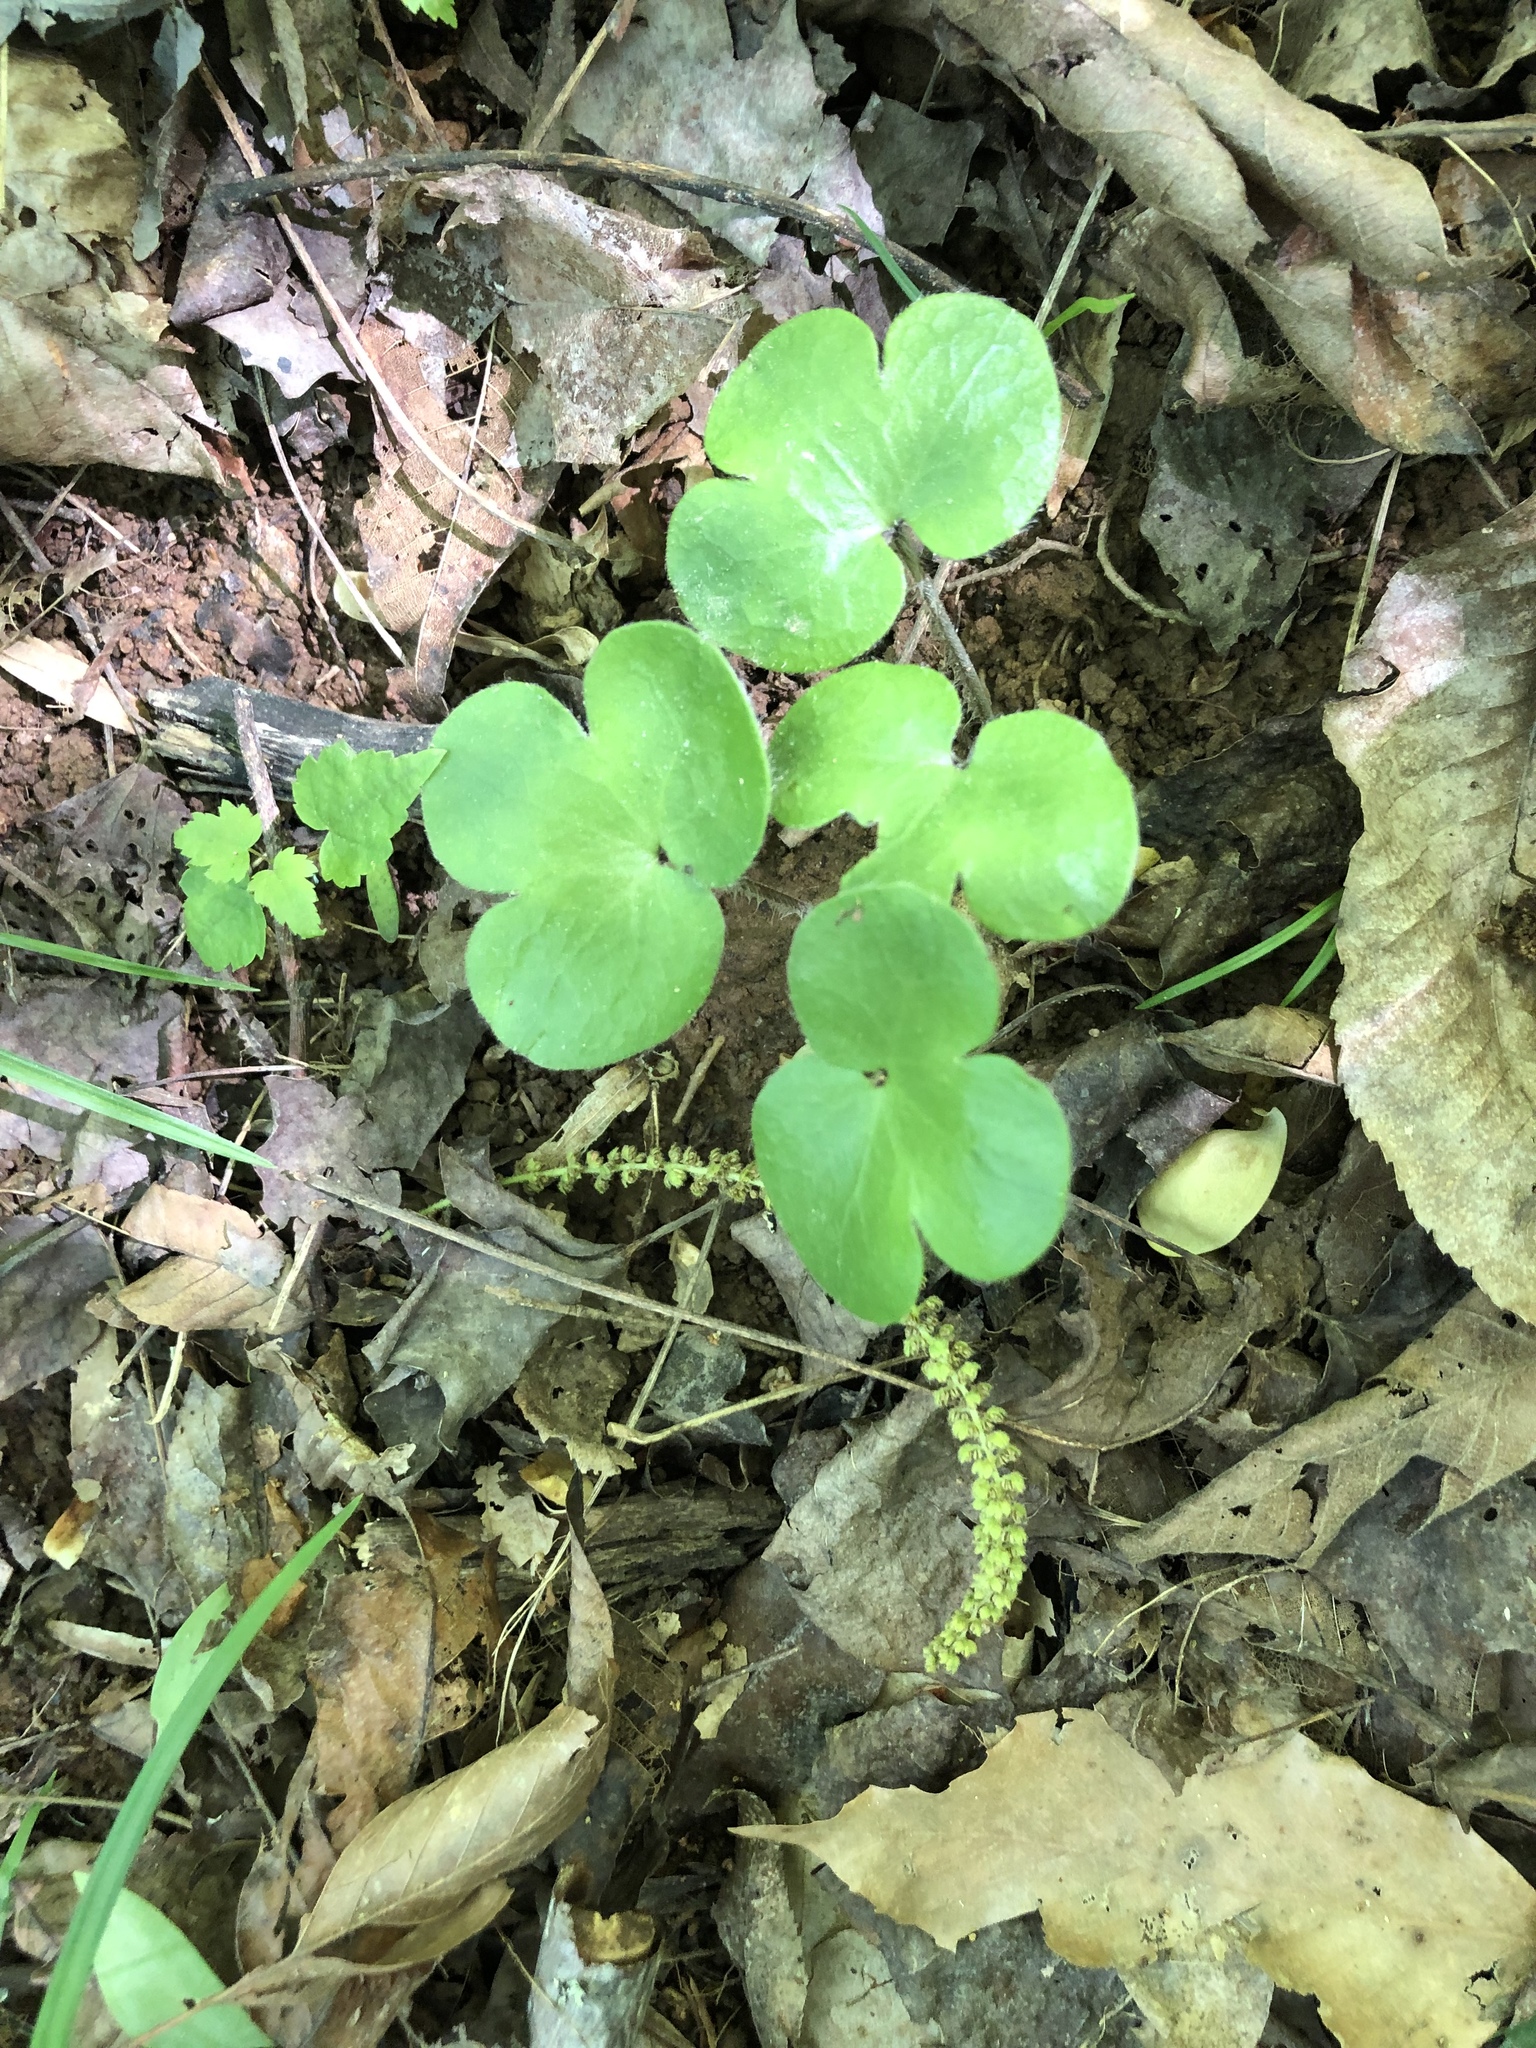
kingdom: Plantae
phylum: Tracheophyta
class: Magnoliopsida
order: Ranunculales
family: Ranunculaceae
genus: Hepatica
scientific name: Hepatica americana
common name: American hepatica
